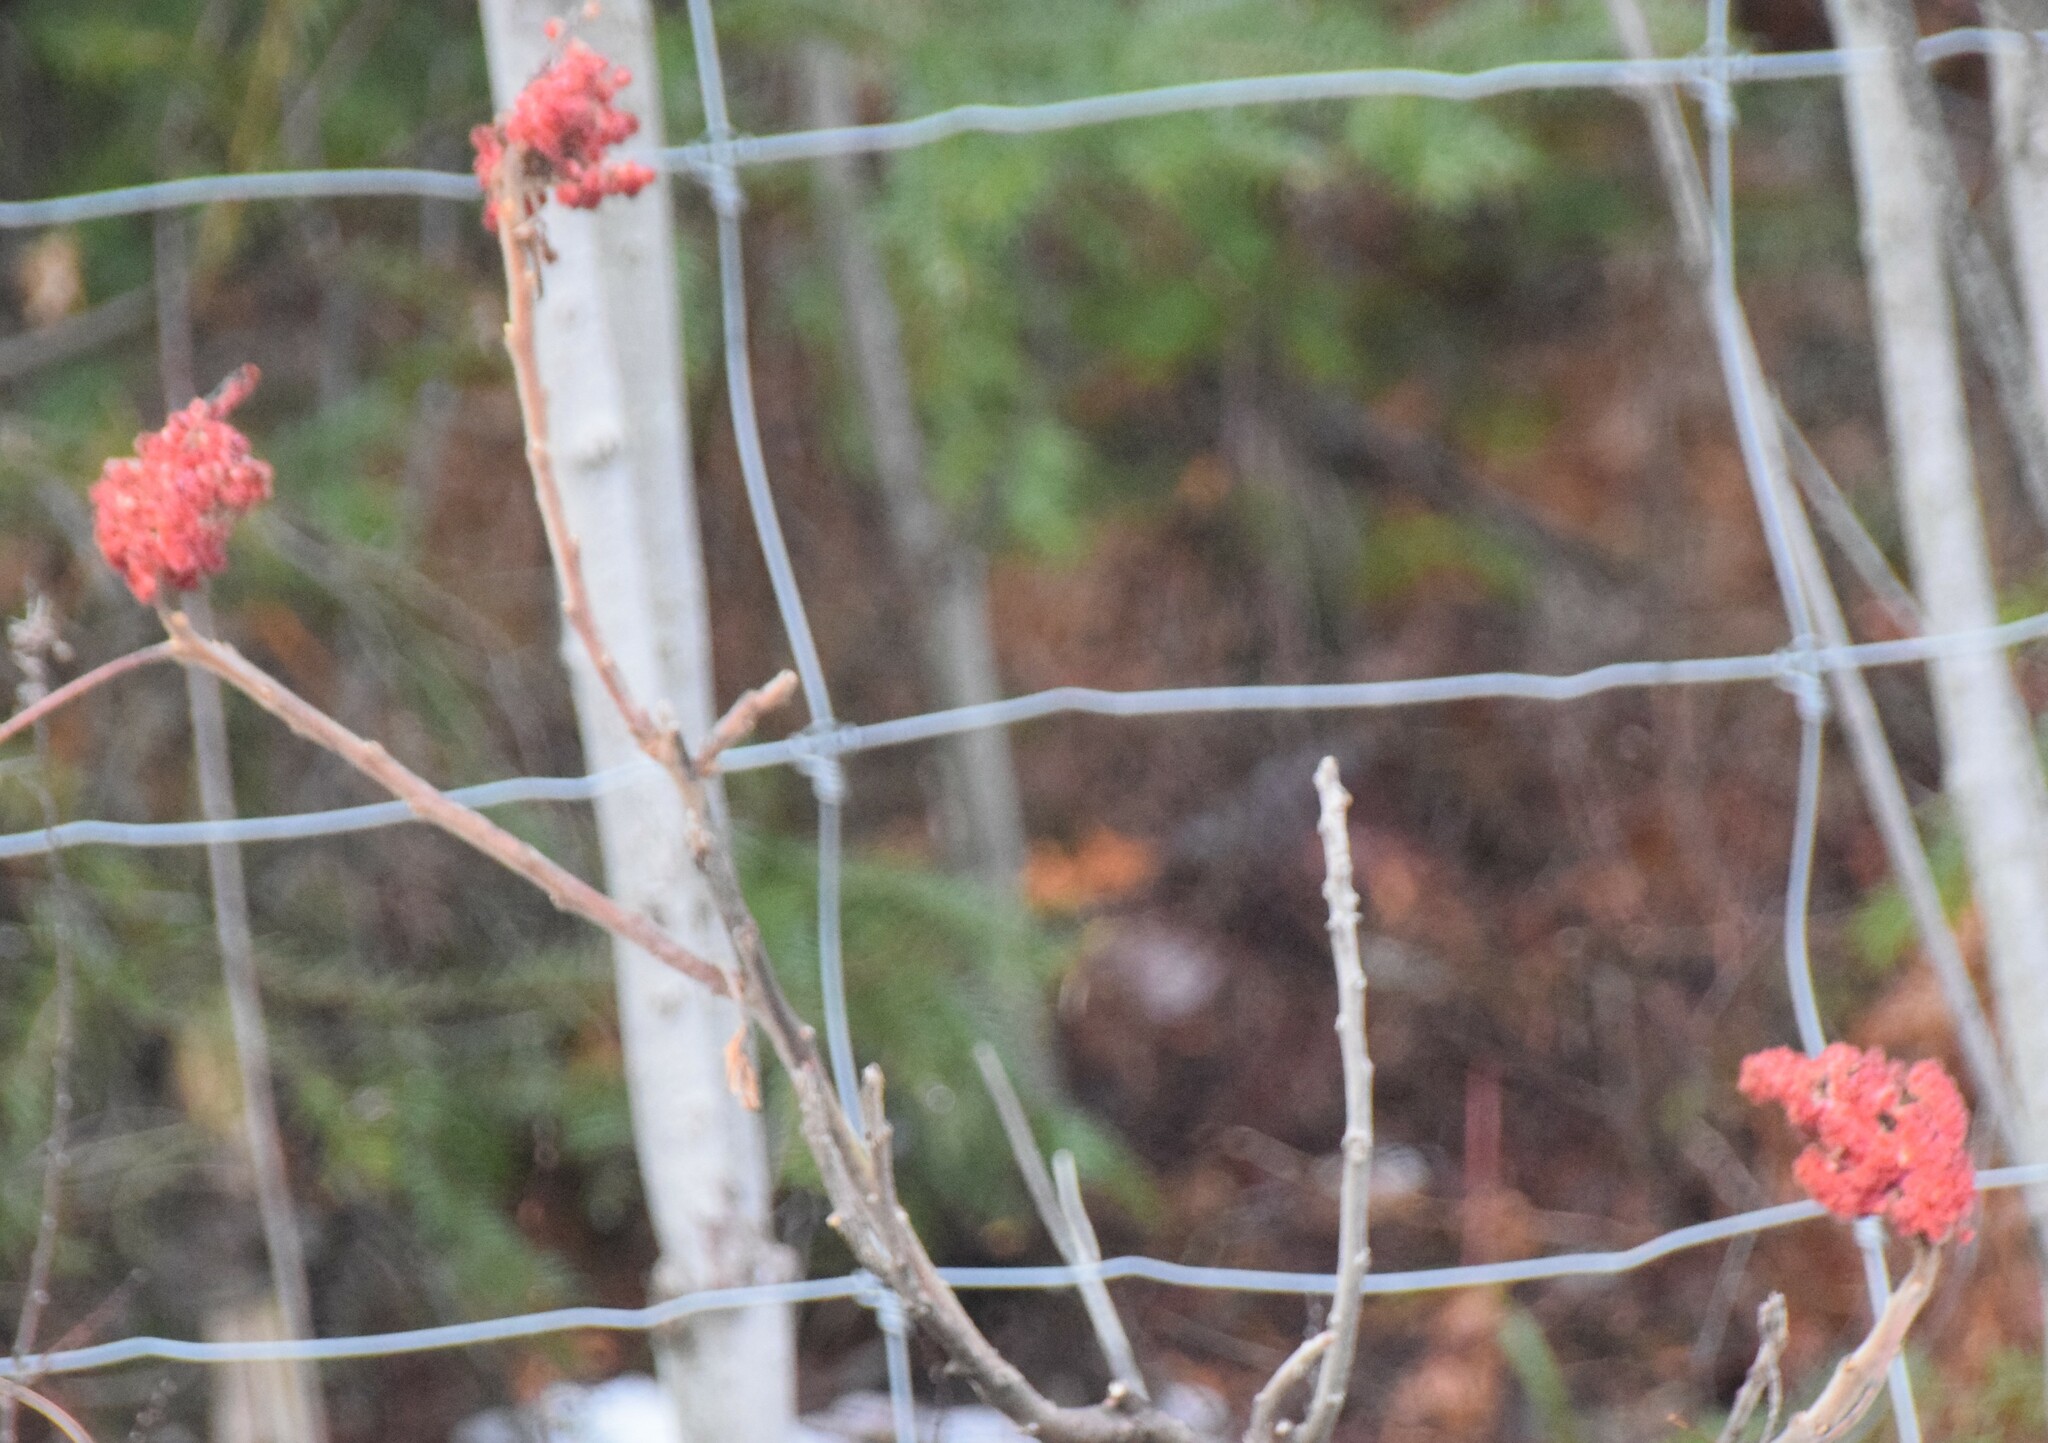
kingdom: Plantae
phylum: Tracheophyta
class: Magnoliopsida
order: Sapindales
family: Anacardiaceae
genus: Rhus
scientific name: Rhus typhina
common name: Staghorn sumac
